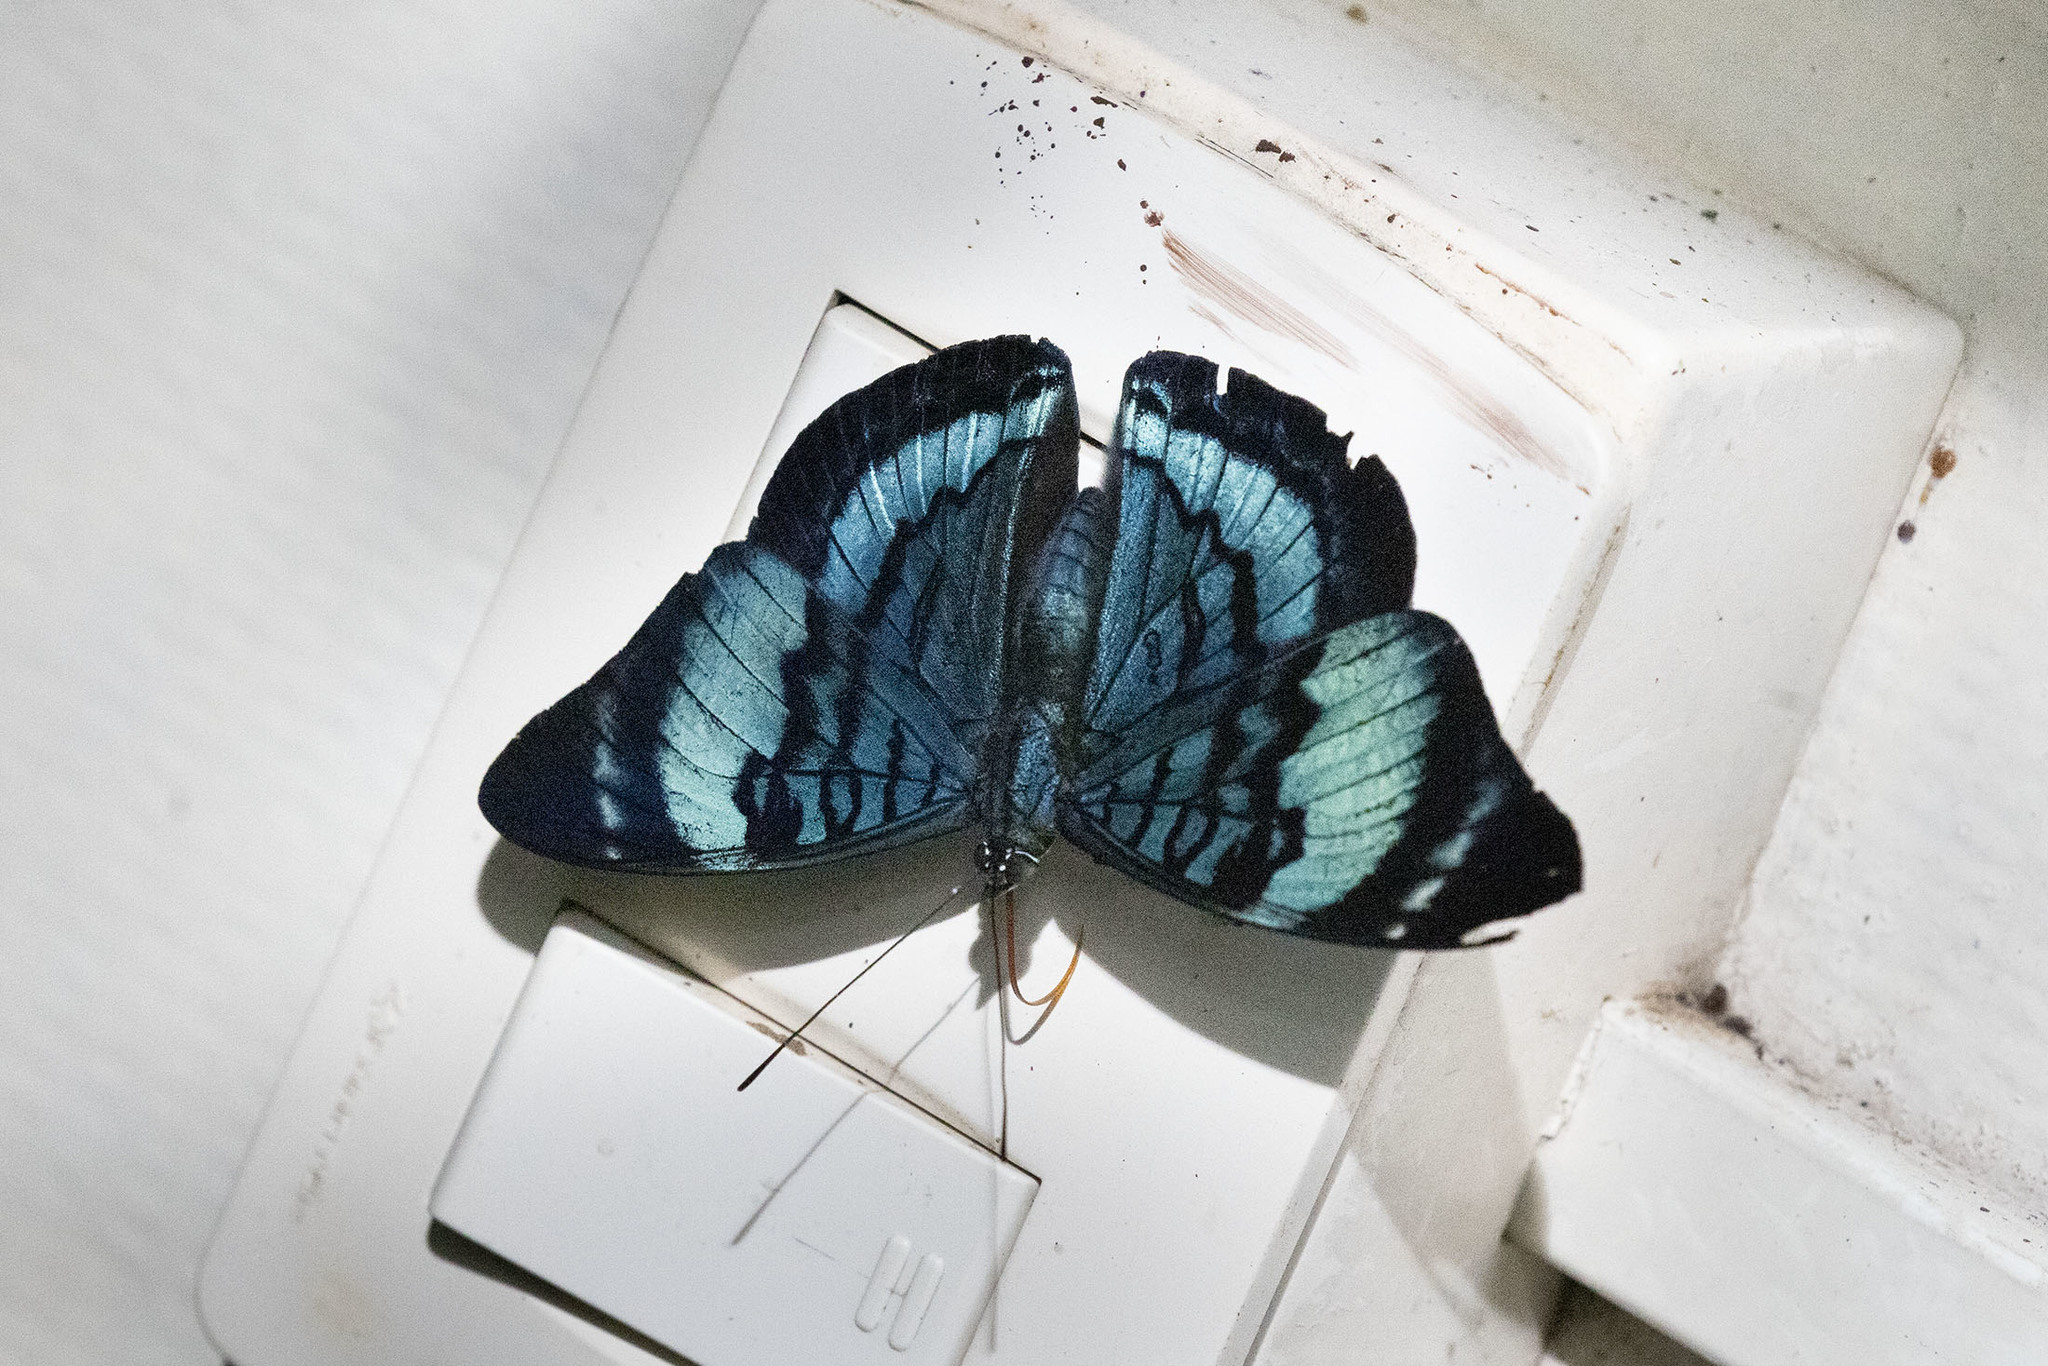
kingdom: Animalia
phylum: Arthropoda
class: Insecta
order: Lepidoptera
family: Nymphalidae
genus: Panacea
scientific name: Panacea procilla
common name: Procilla beauty
